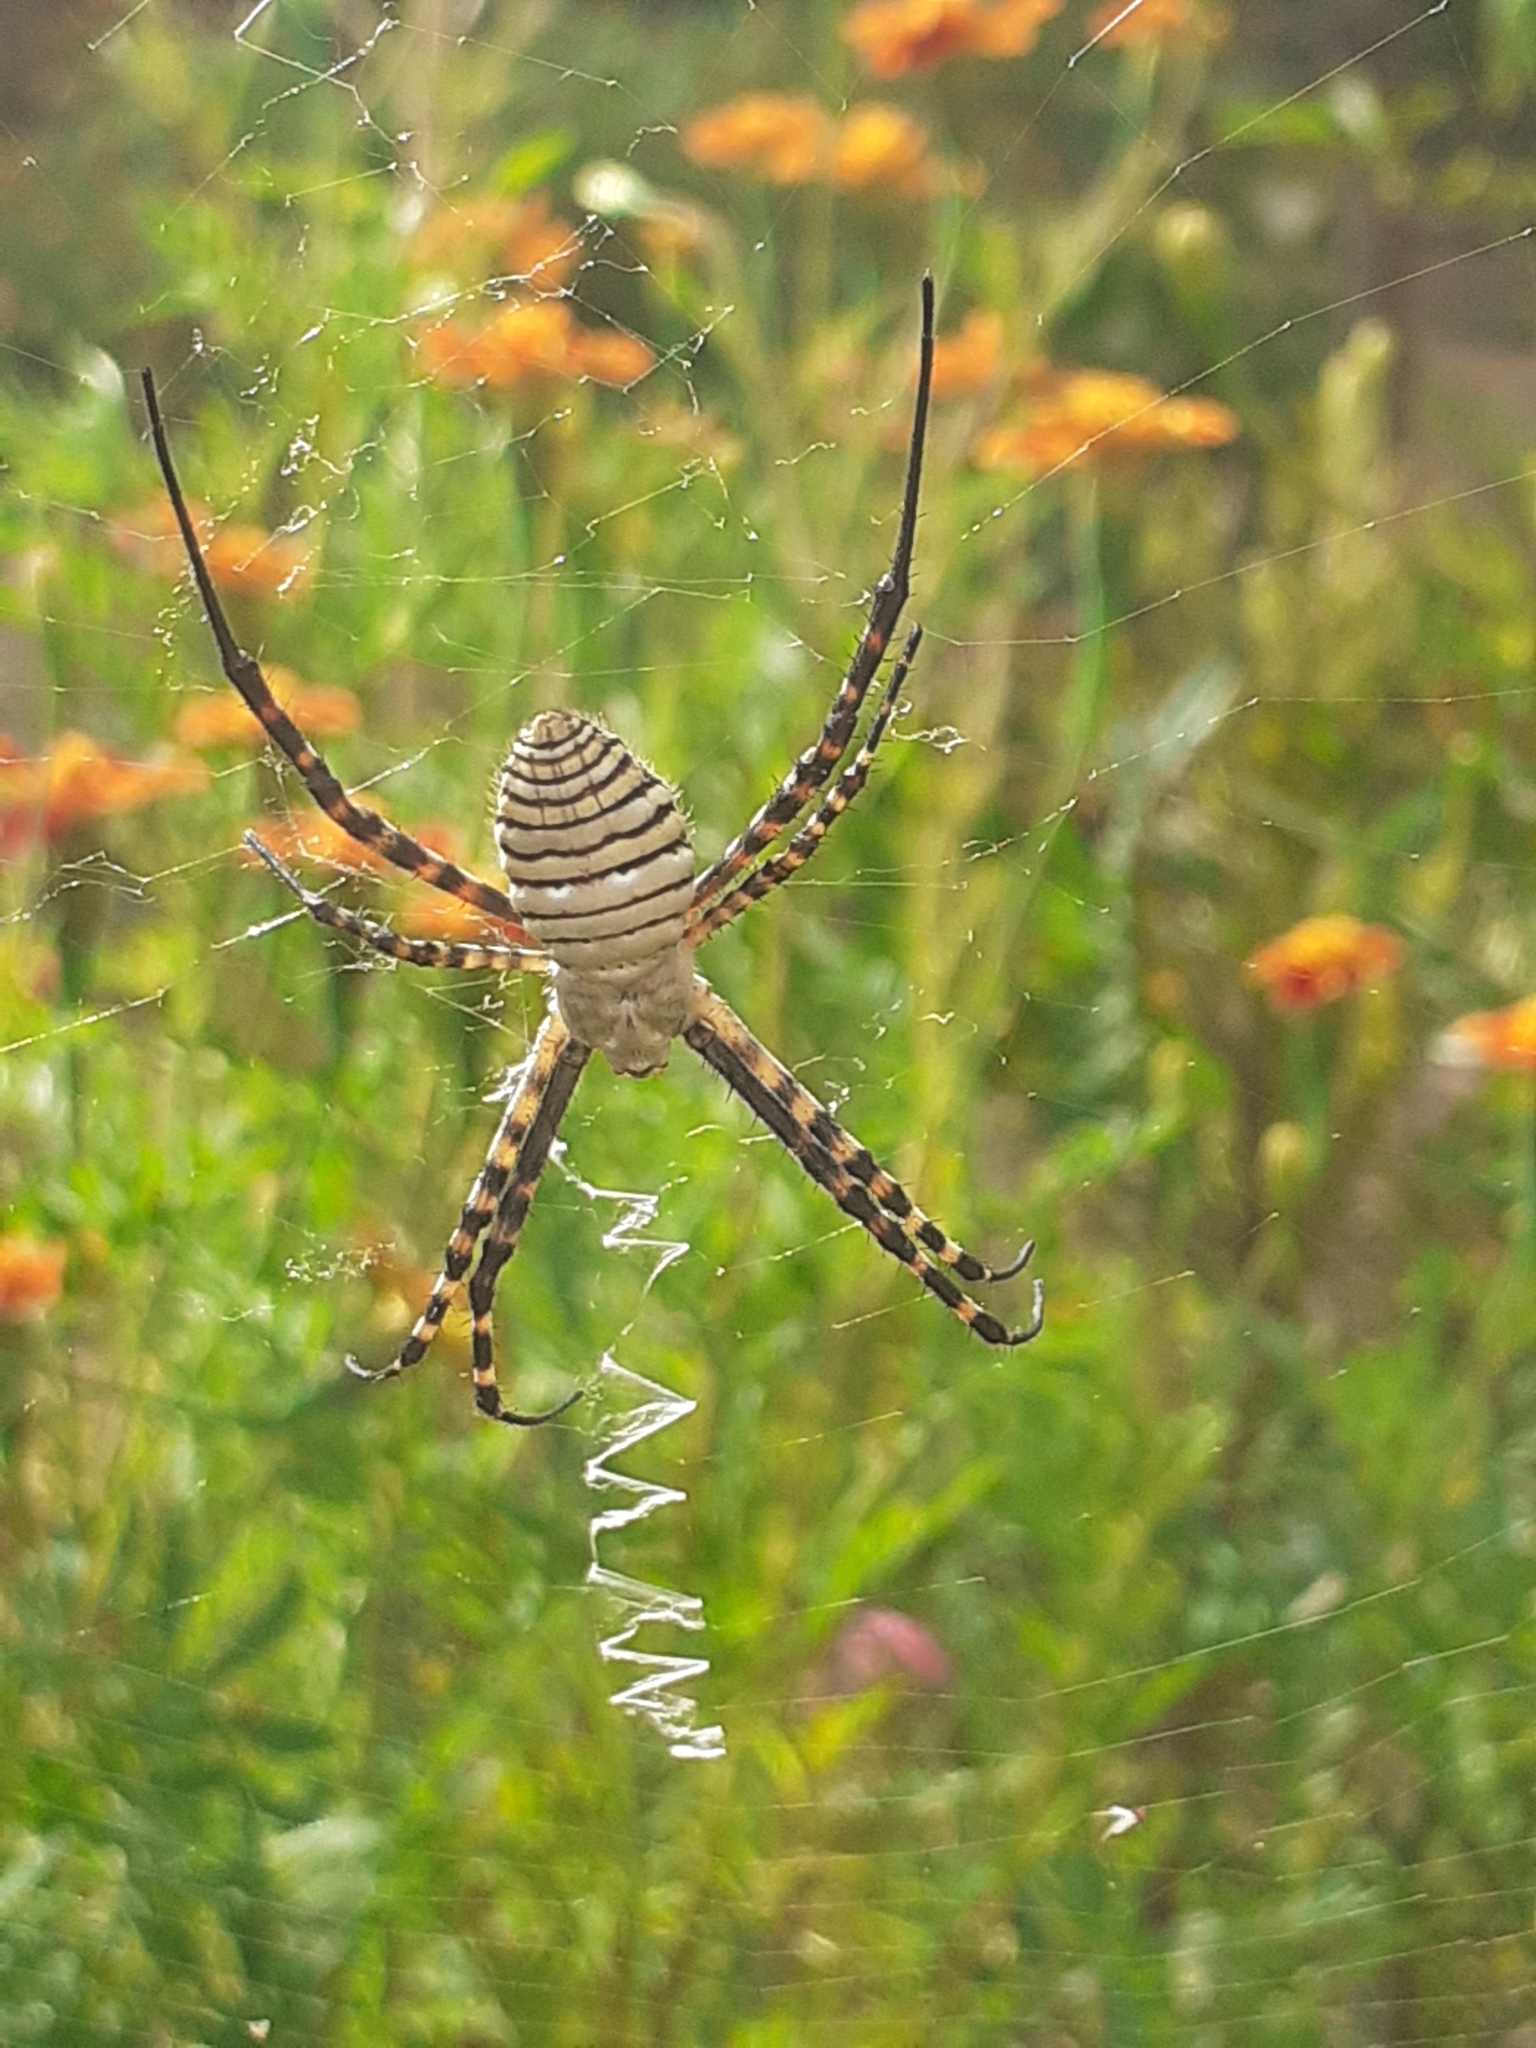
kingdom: Animalia
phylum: Arthropoda
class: Arachnida
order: Araneae
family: Araneidae
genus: Argiope
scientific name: Argiope trifasciata
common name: Banded garden spider
